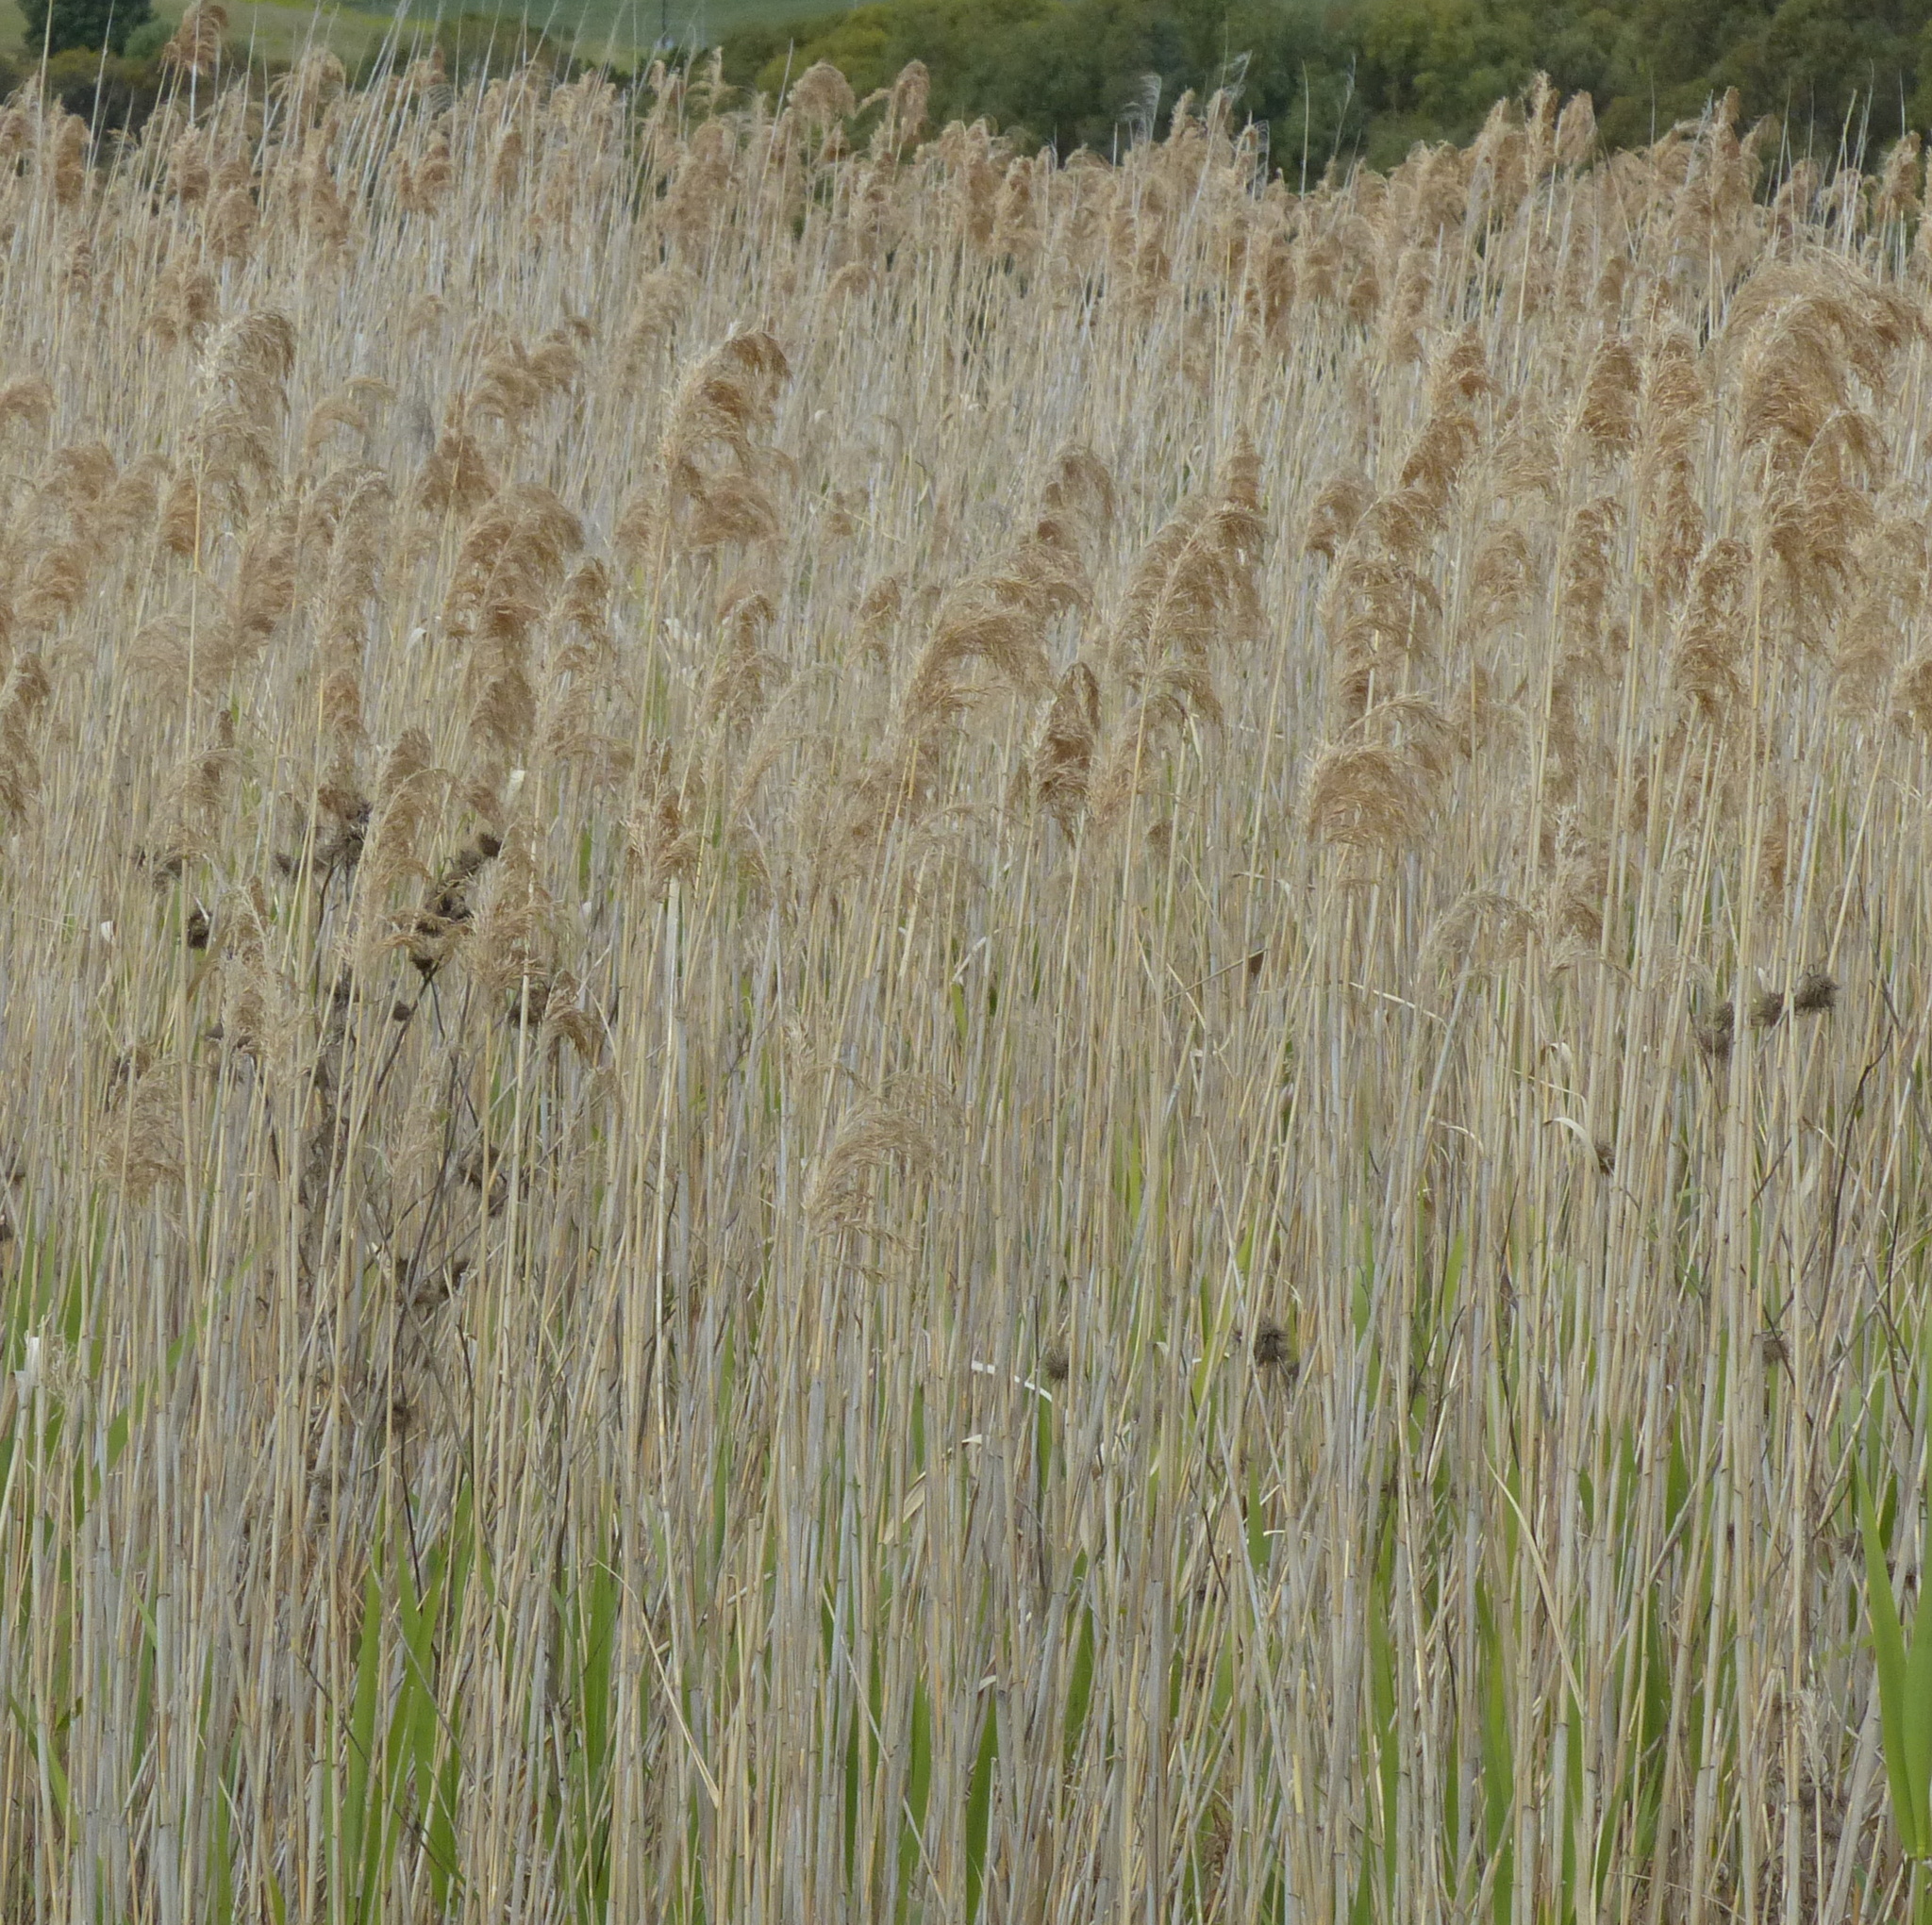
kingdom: Plantae
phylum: Tracheophyta
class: Liliopsida
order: Poales
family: Poaceae
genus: Phragmites
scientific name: Phragmites australis
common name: Common reed
